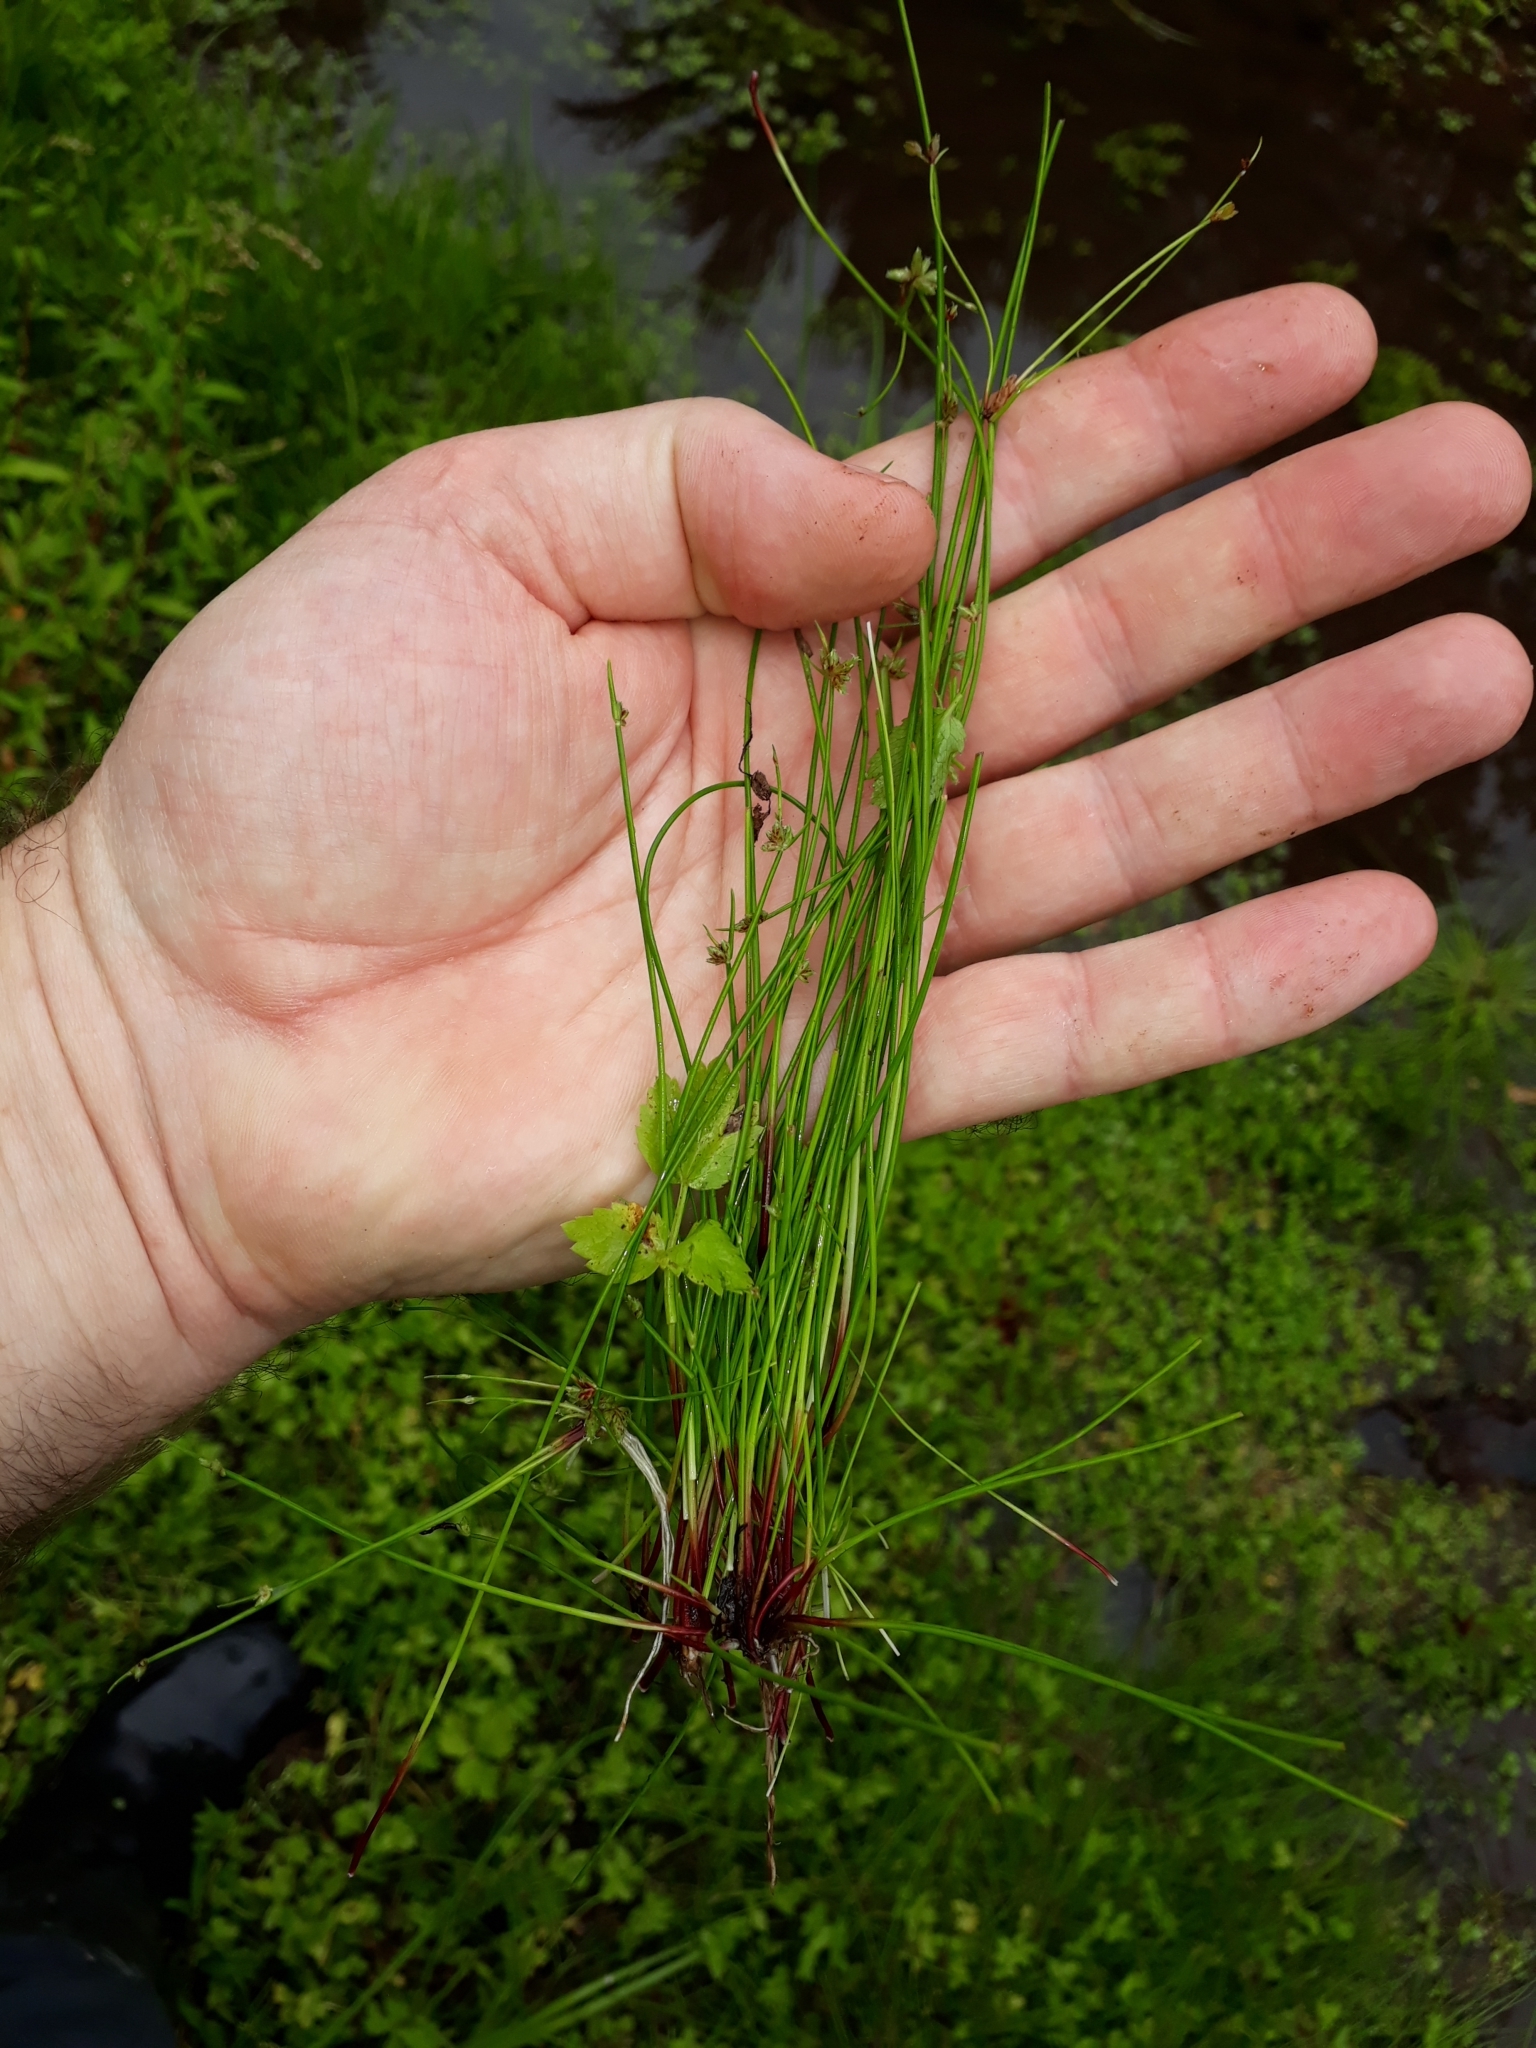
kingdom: Plantae
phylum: Tracheophyta
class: Liliopsida
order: Poales
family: Cyperaceae
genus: Isolepis
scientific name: Isolepis prolifera
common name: Proliferating bulrush
